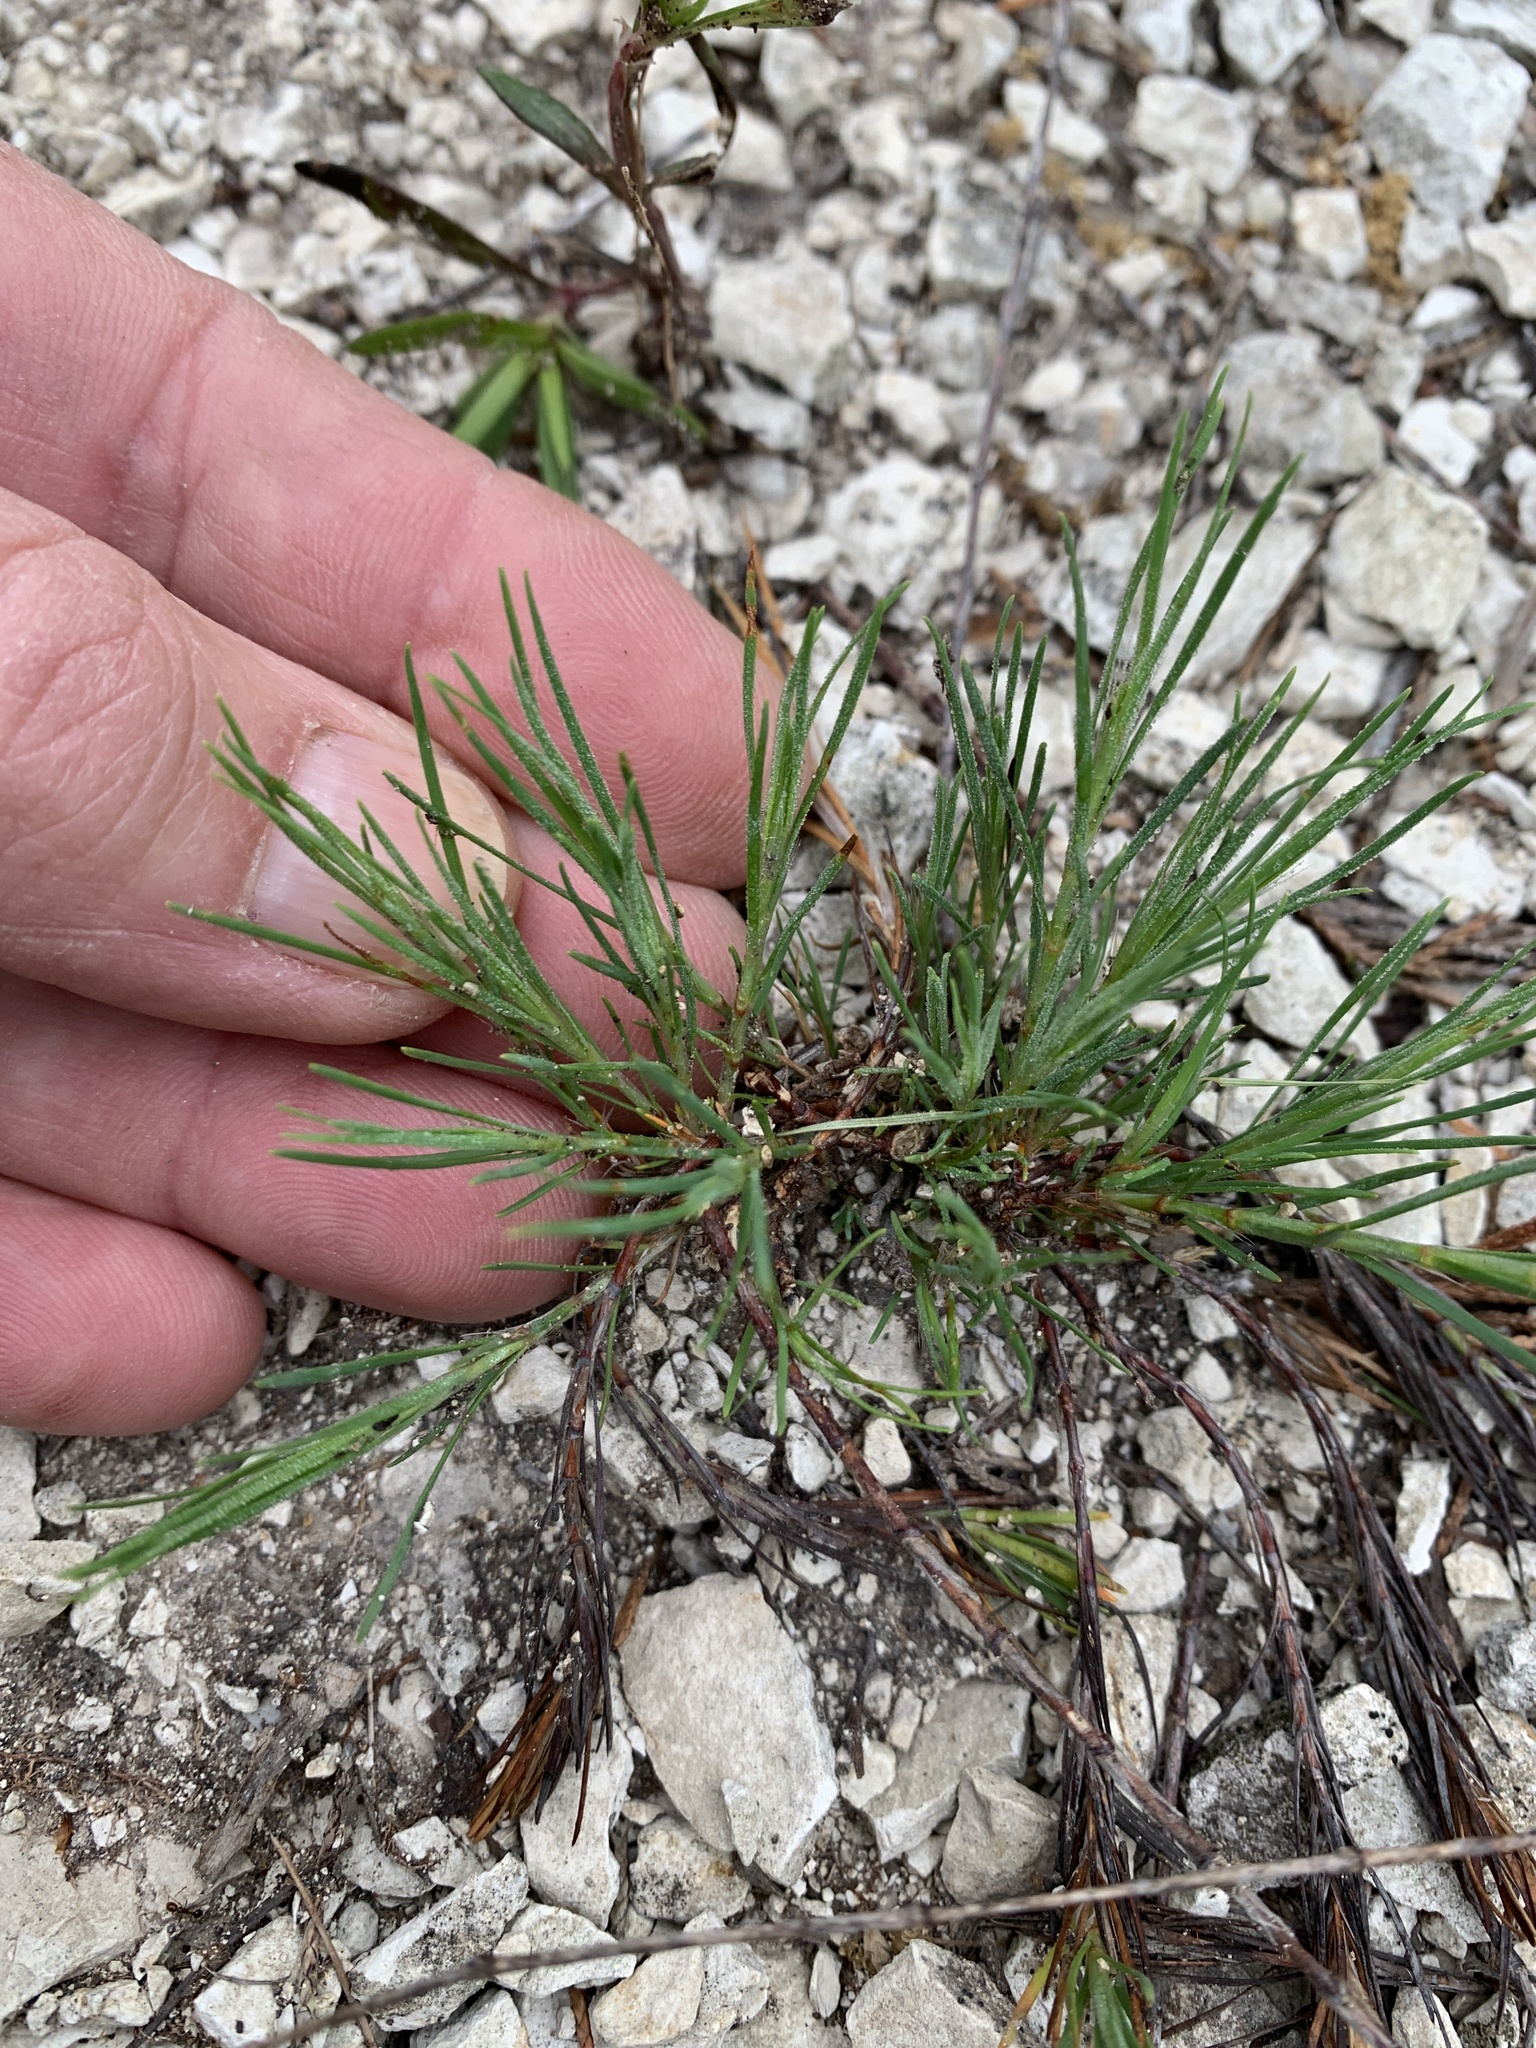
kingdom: Plantae
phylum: Tracheophyta
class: Magnoliopsida
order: Caryophyllales
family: Caryophyllaceae
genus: Paronychia
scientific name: Paronychia virginica
